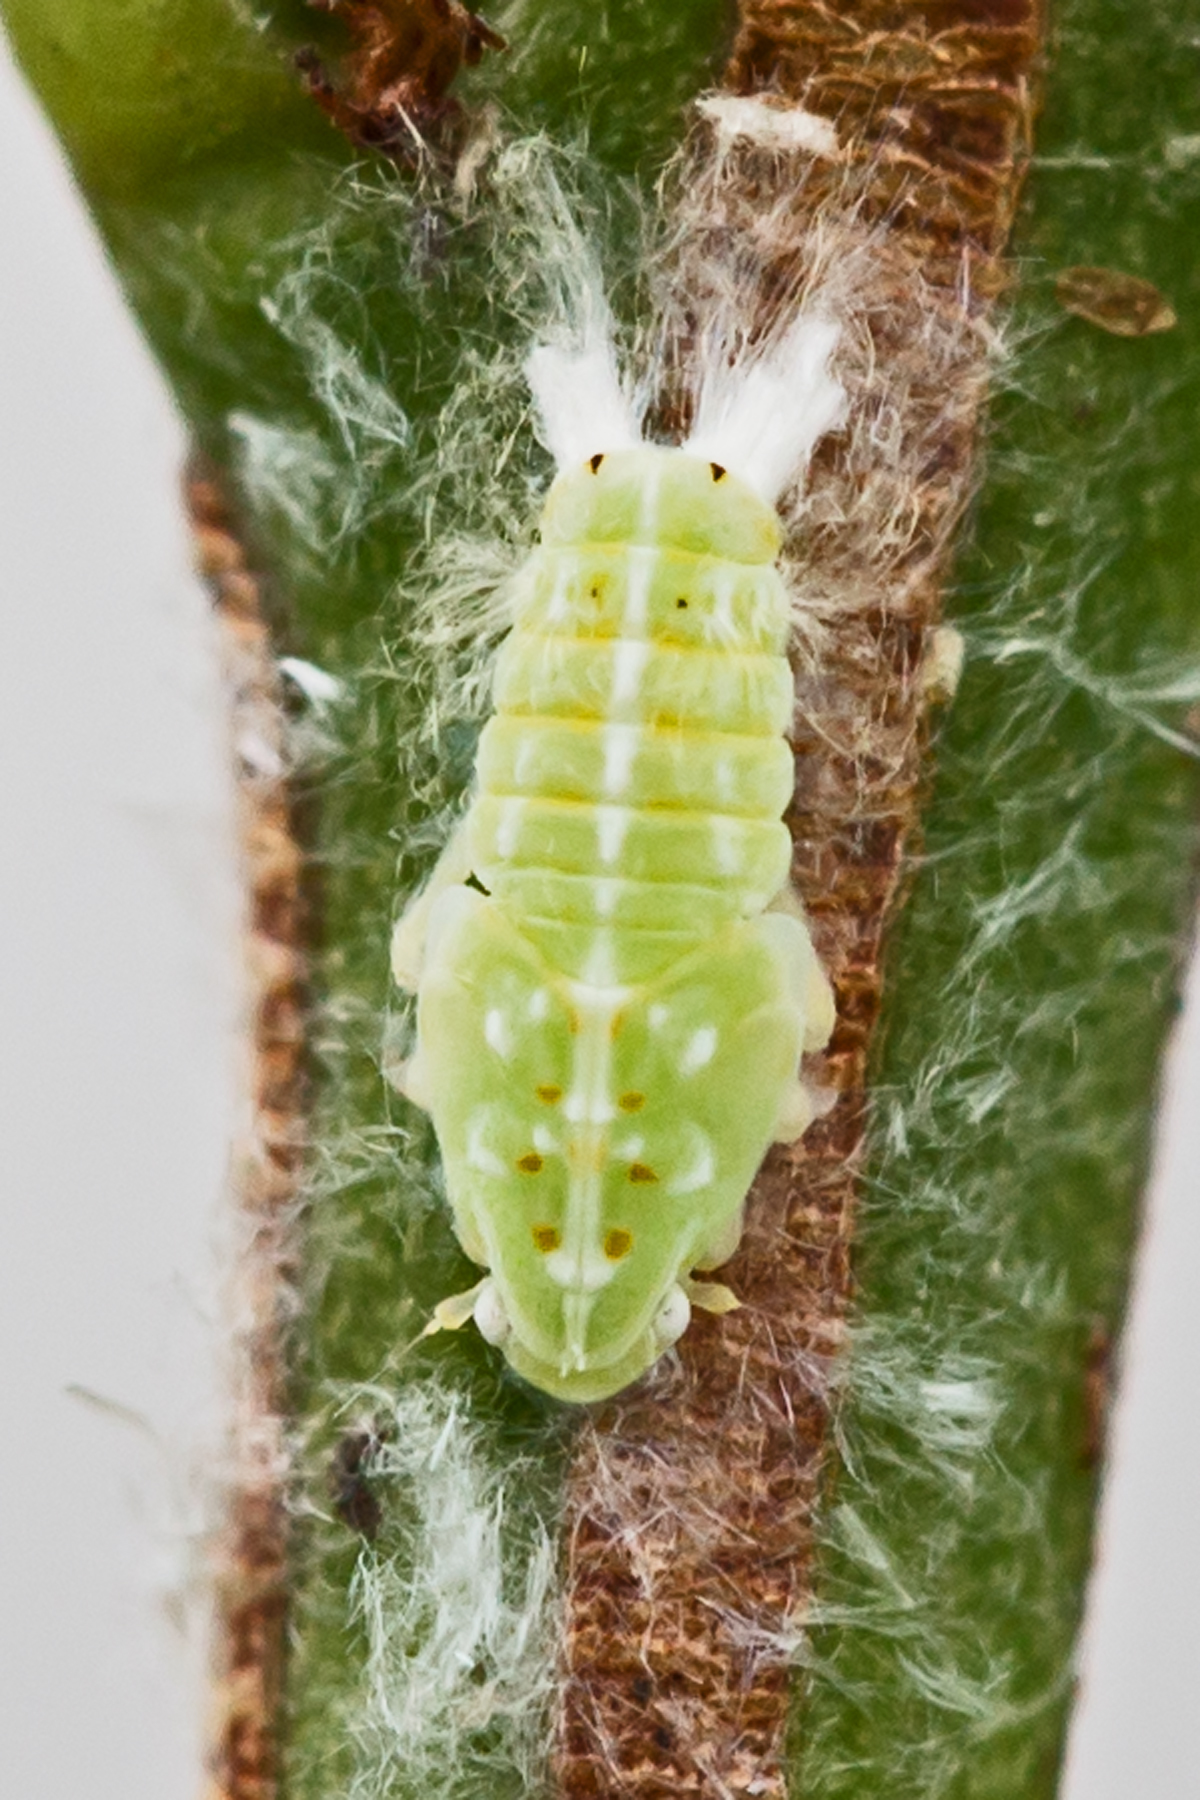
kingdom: Animalia
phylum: Arthropoda
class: Insecta
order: Hemiptera
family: Flatidae
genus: Ormenoides
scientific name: Ormenoides venusta
